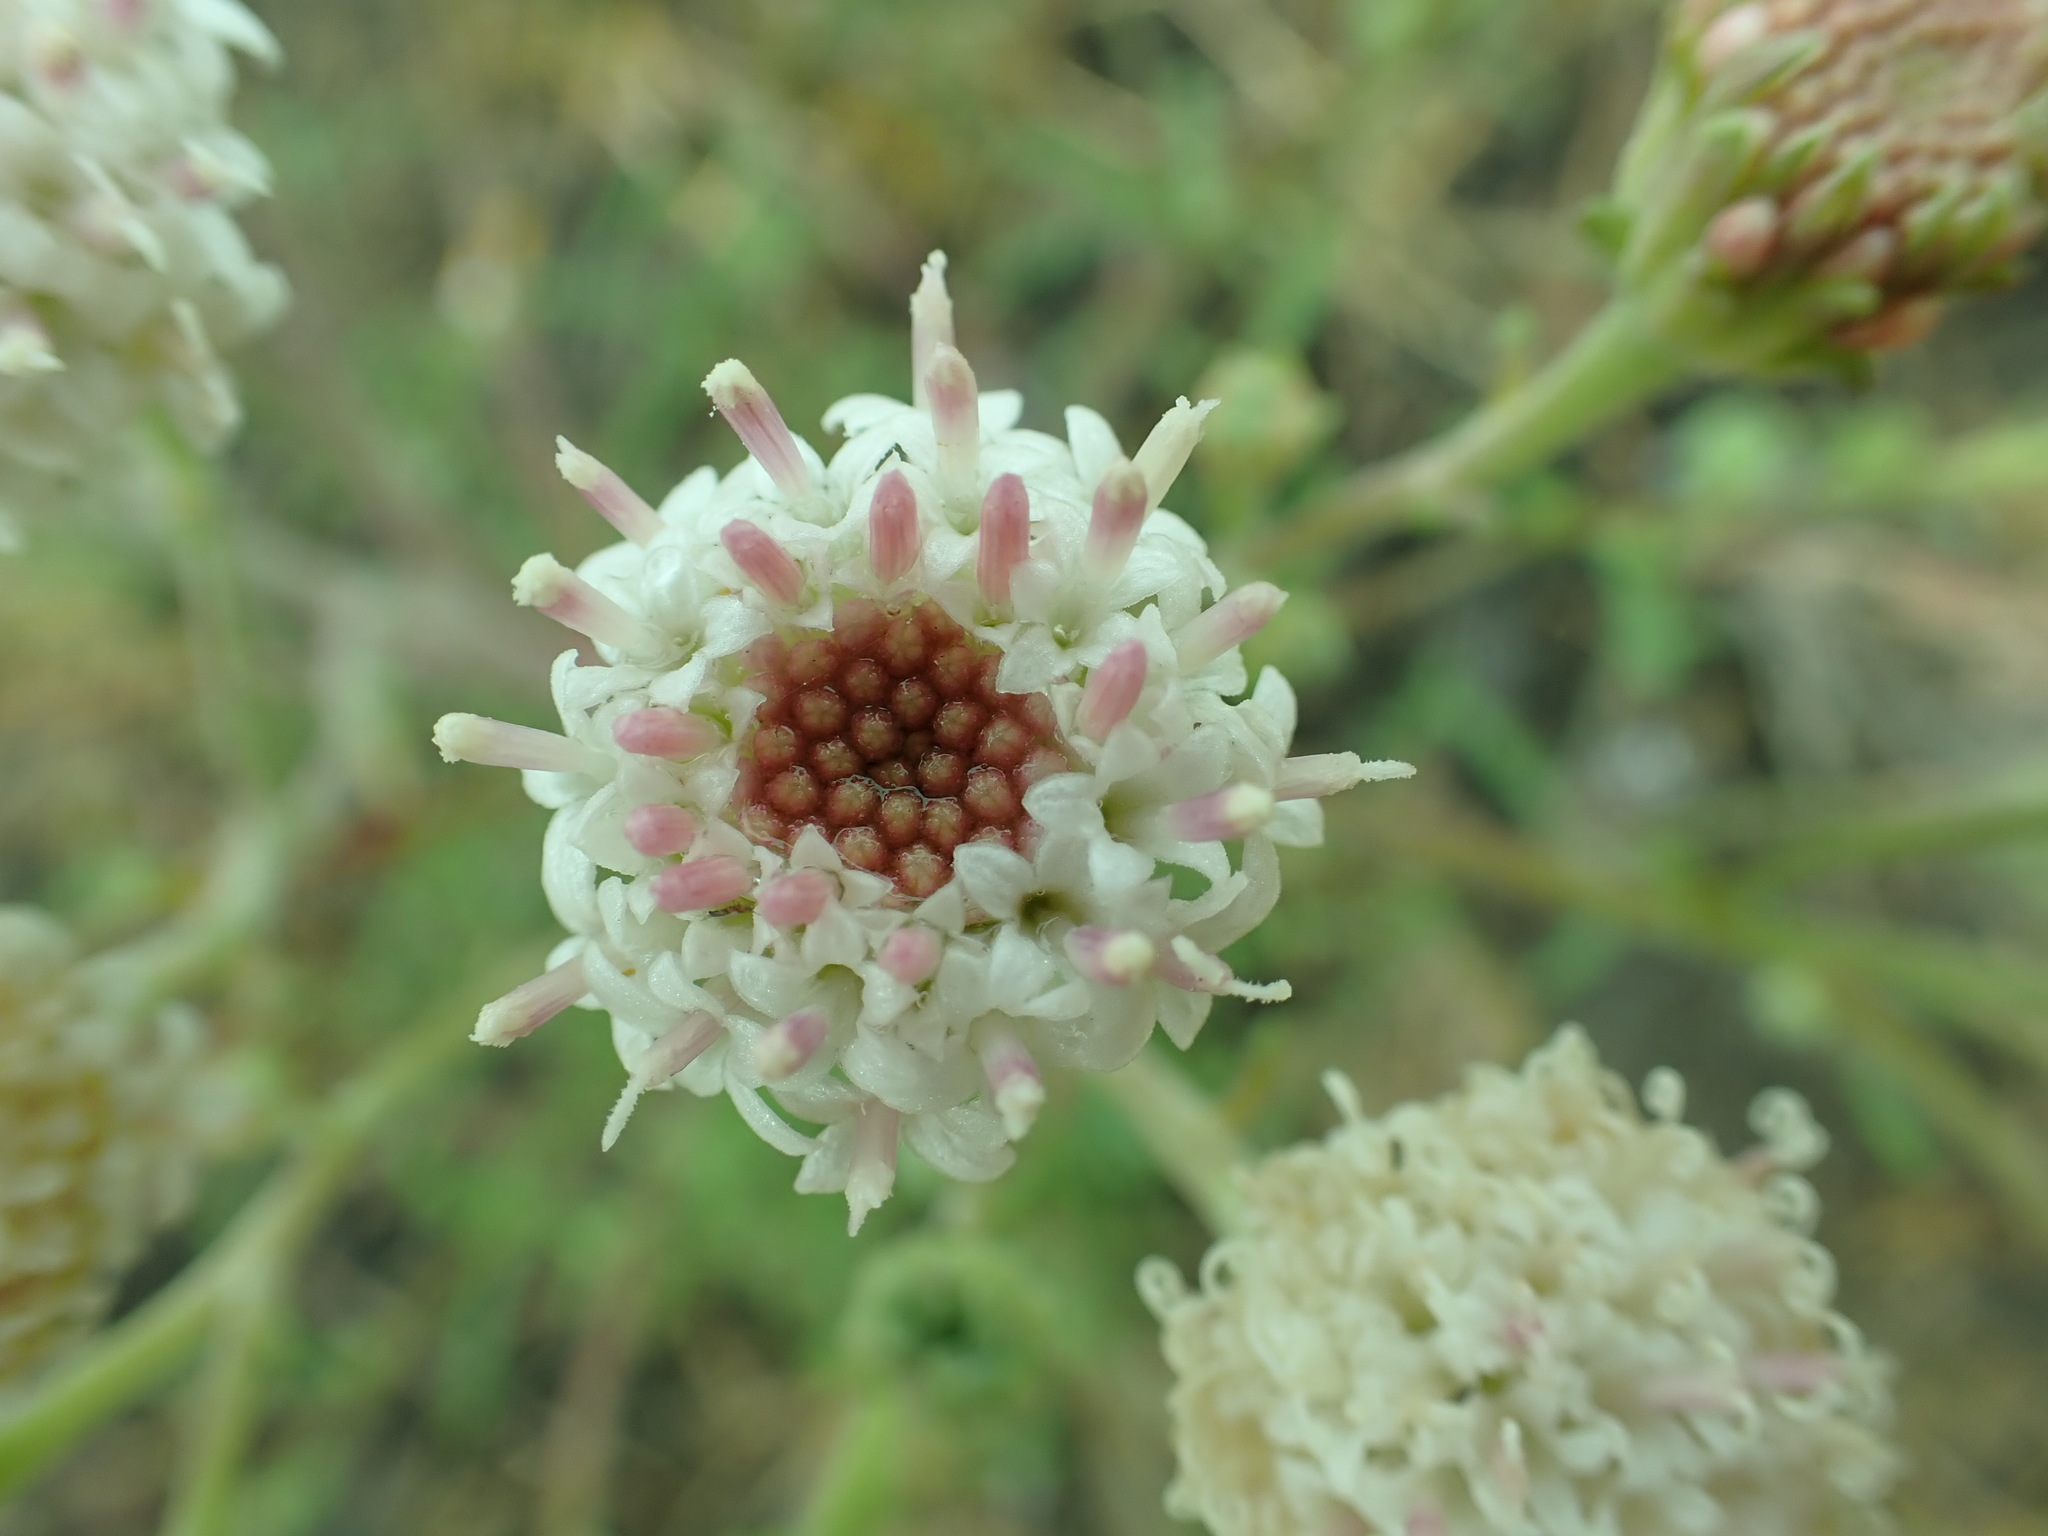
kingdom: Plantae
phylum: Tracheophyta
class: Magnoliopsida
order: Asterales
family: Asteraceae
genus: Chaenactis
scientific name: Chaenactis douglasii
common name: Hoary pincushion
